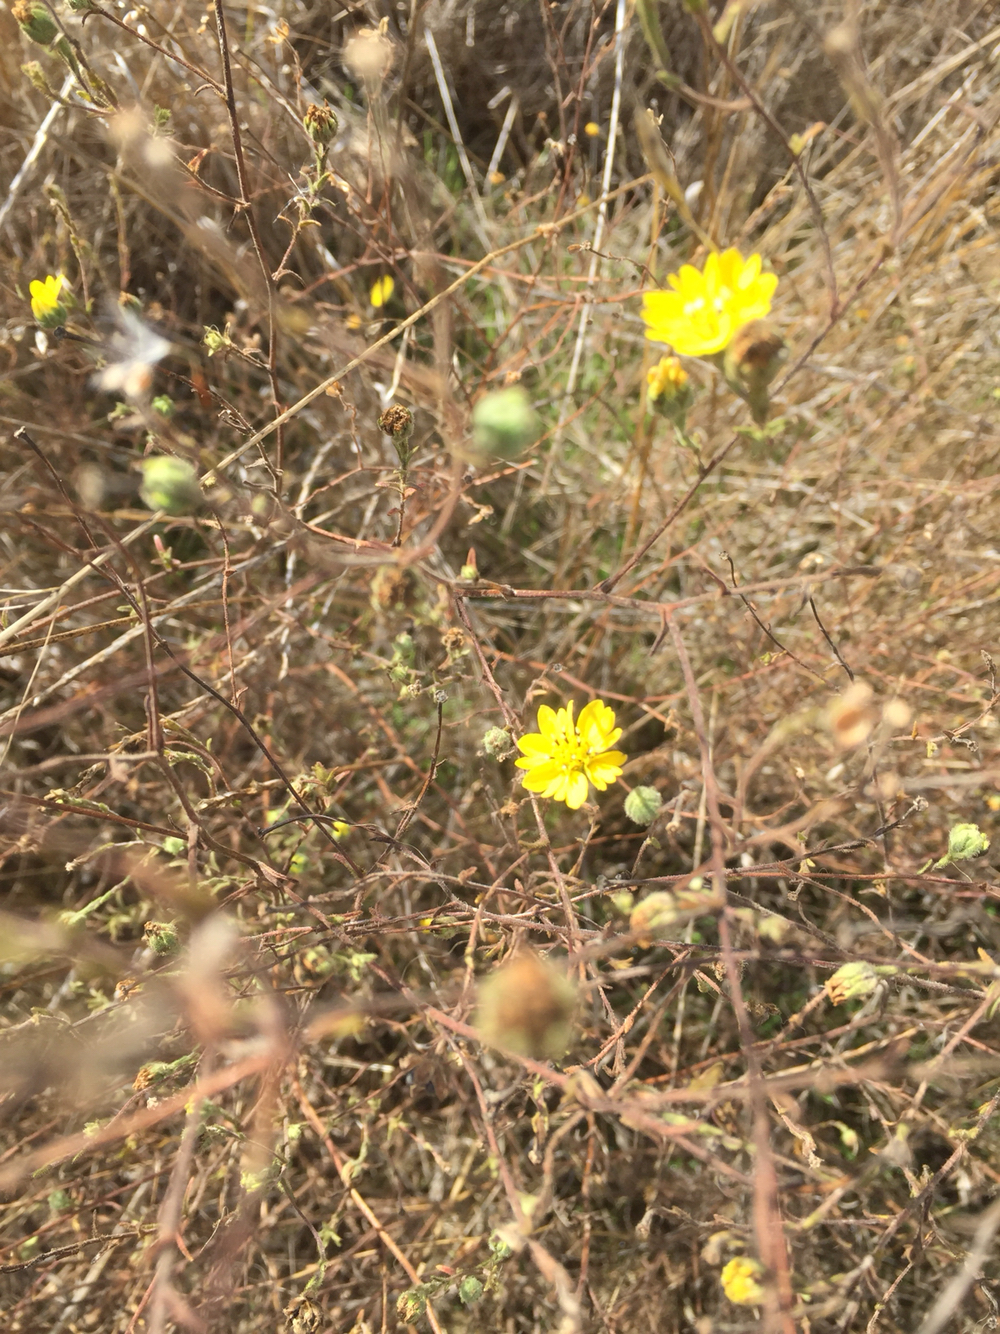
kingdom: Plantae
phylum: Tracheophyta
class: Magnoliopsida
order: Asterales
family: Asteraceae
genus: Hemizonia
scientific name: Hemizonia congesta
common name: Hayfield tarweed
